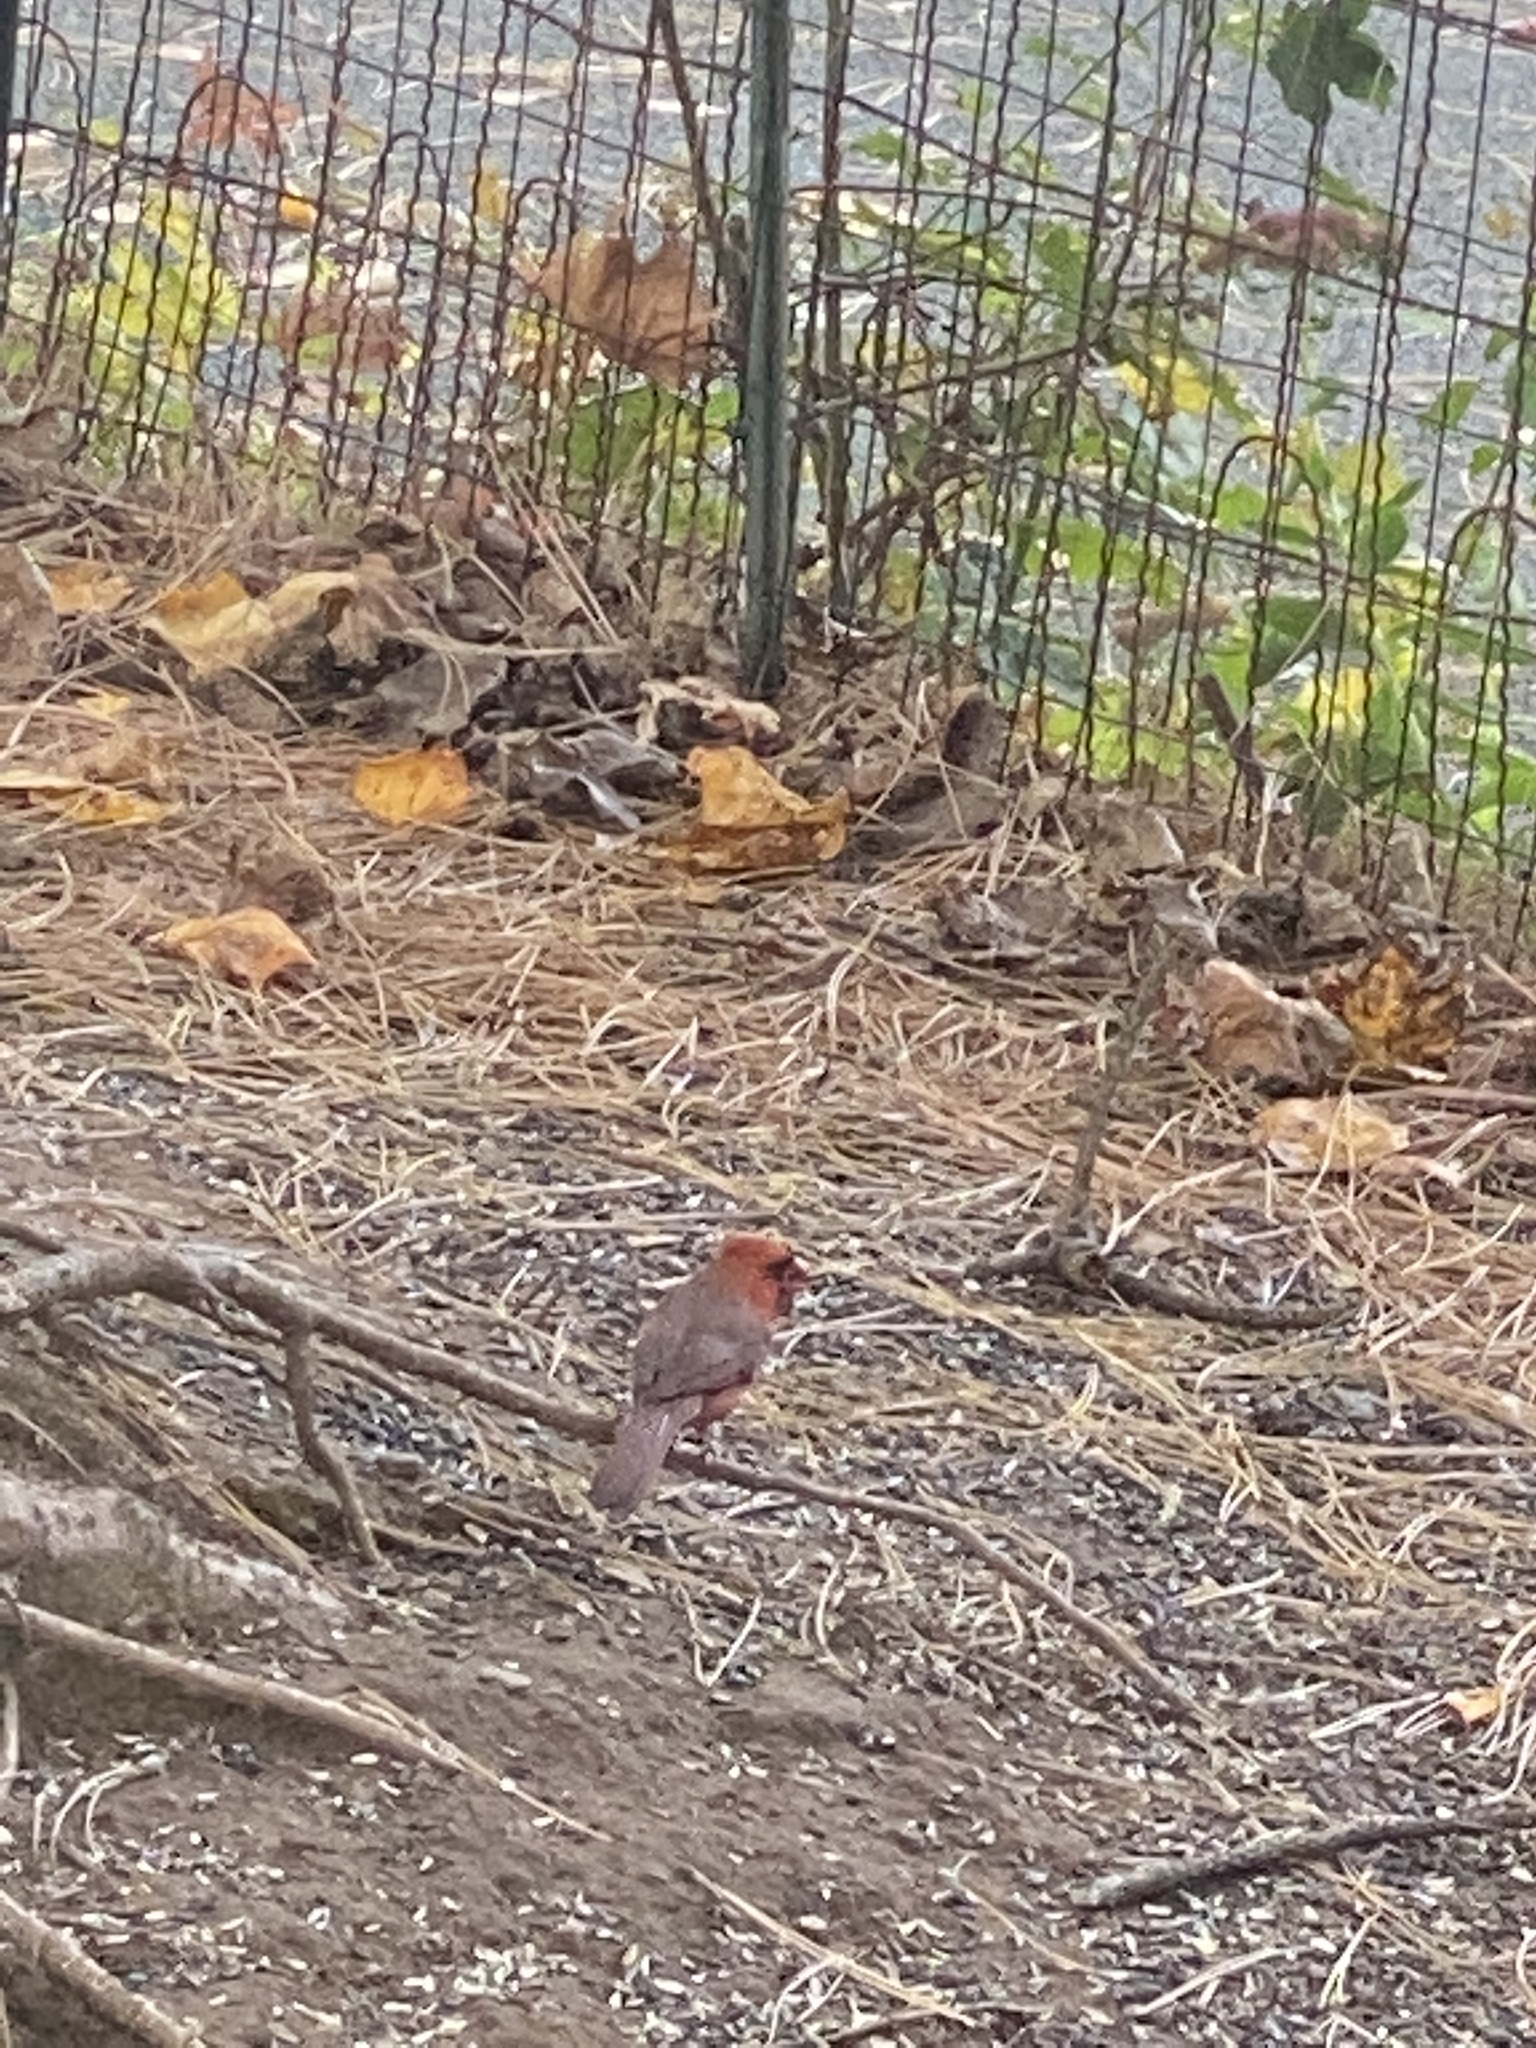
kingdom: Animalia
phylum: Chordata
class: Aves
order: Passeriformes
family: Cardinalidae
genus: Cardinalis
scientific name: Cardinalis cardinalis
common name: Northern cardinal
